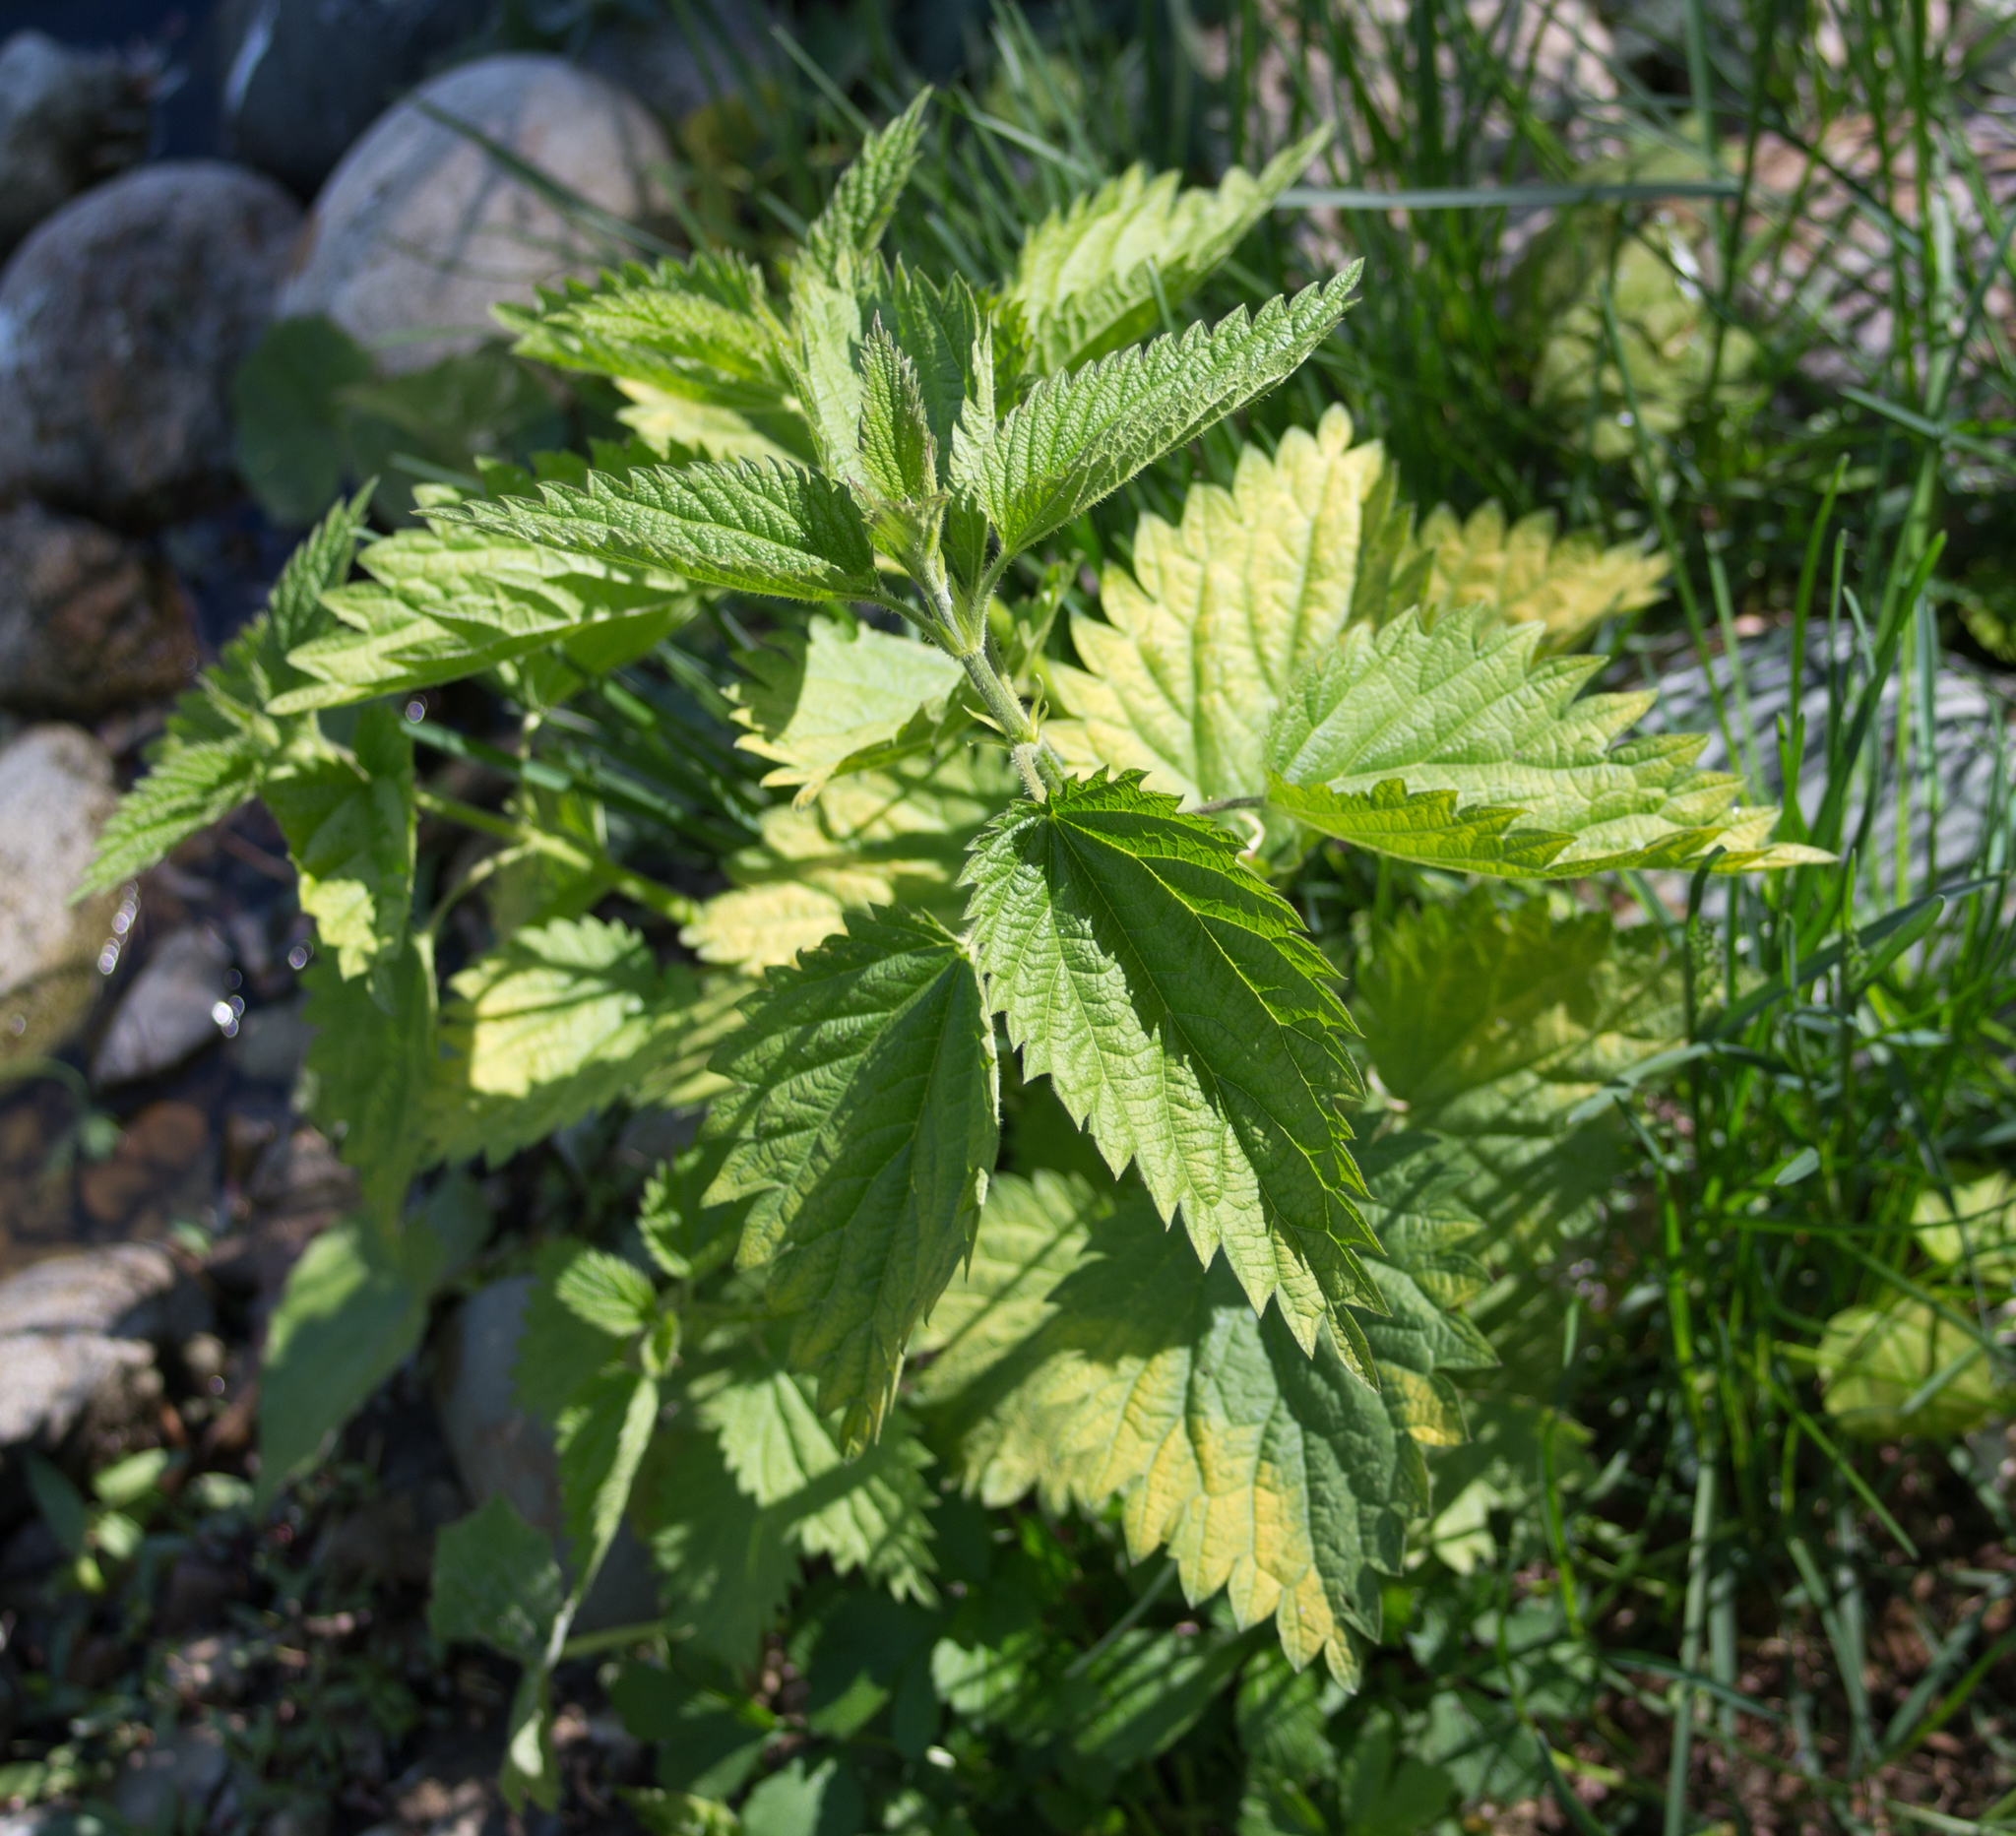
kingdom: Plantae
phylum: Tracheophyta
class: Magnoliopsida
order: Rosales
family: Urticaceae
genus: Urtica
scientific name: Urtica dioica
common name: Common nettle
